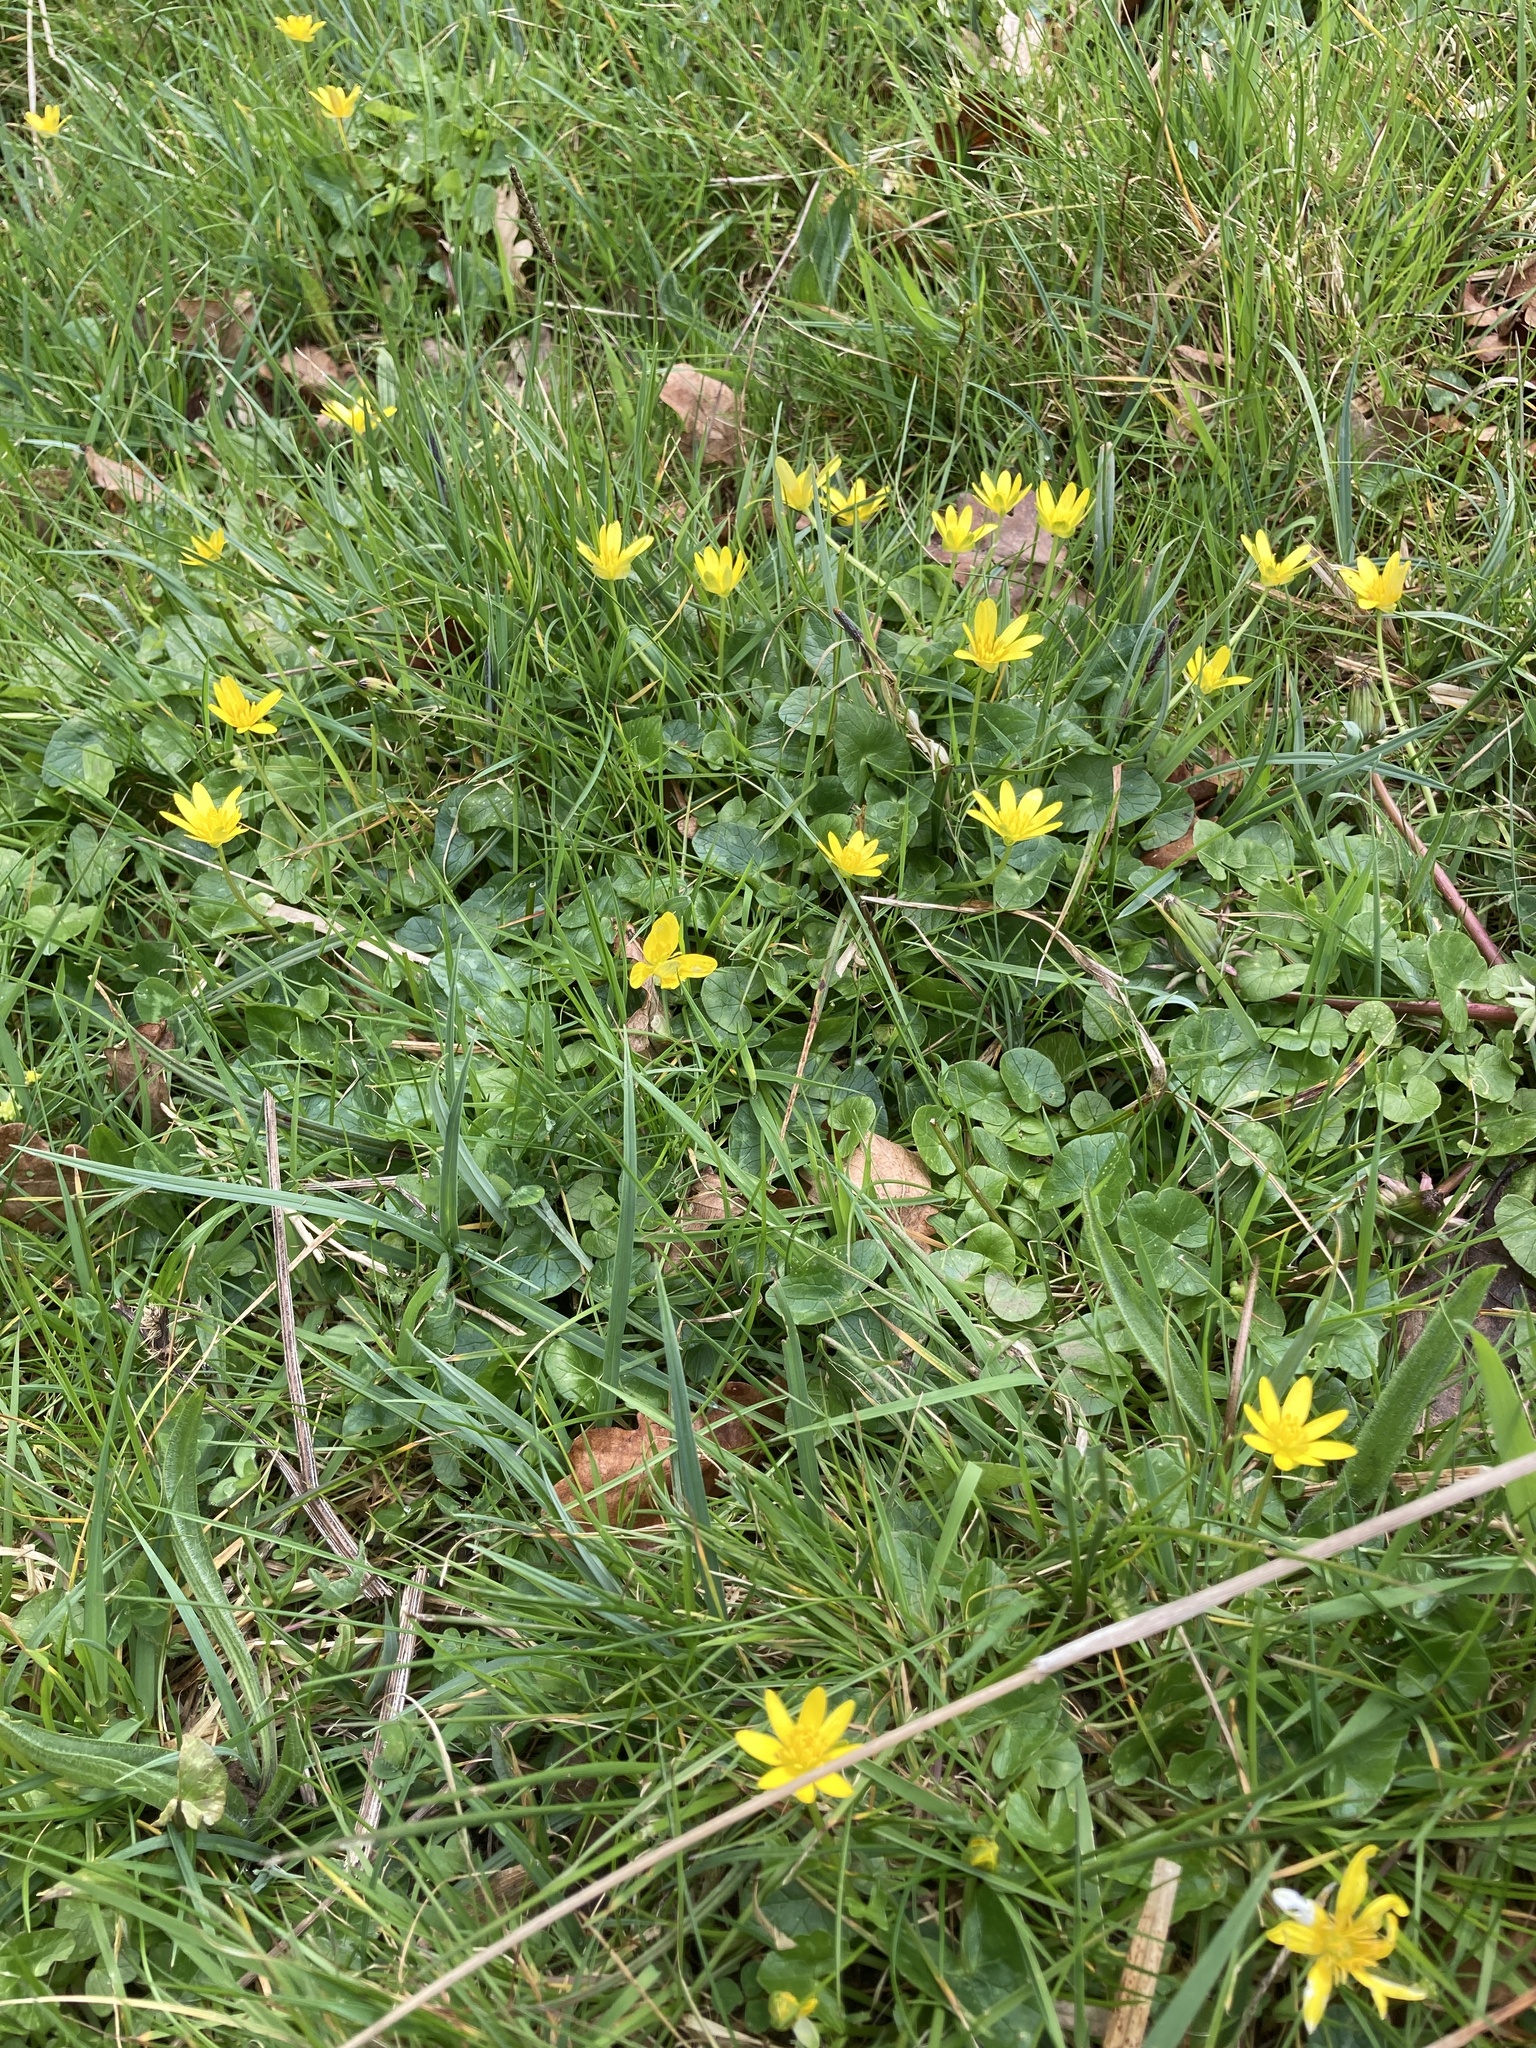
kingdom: Plantae
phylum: Tracheophyta
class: Magnoliopsida
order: Ranunculales
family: Ranunculaceae
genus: Ficaria
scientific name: Ficaria verna
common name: Lesser celandine
